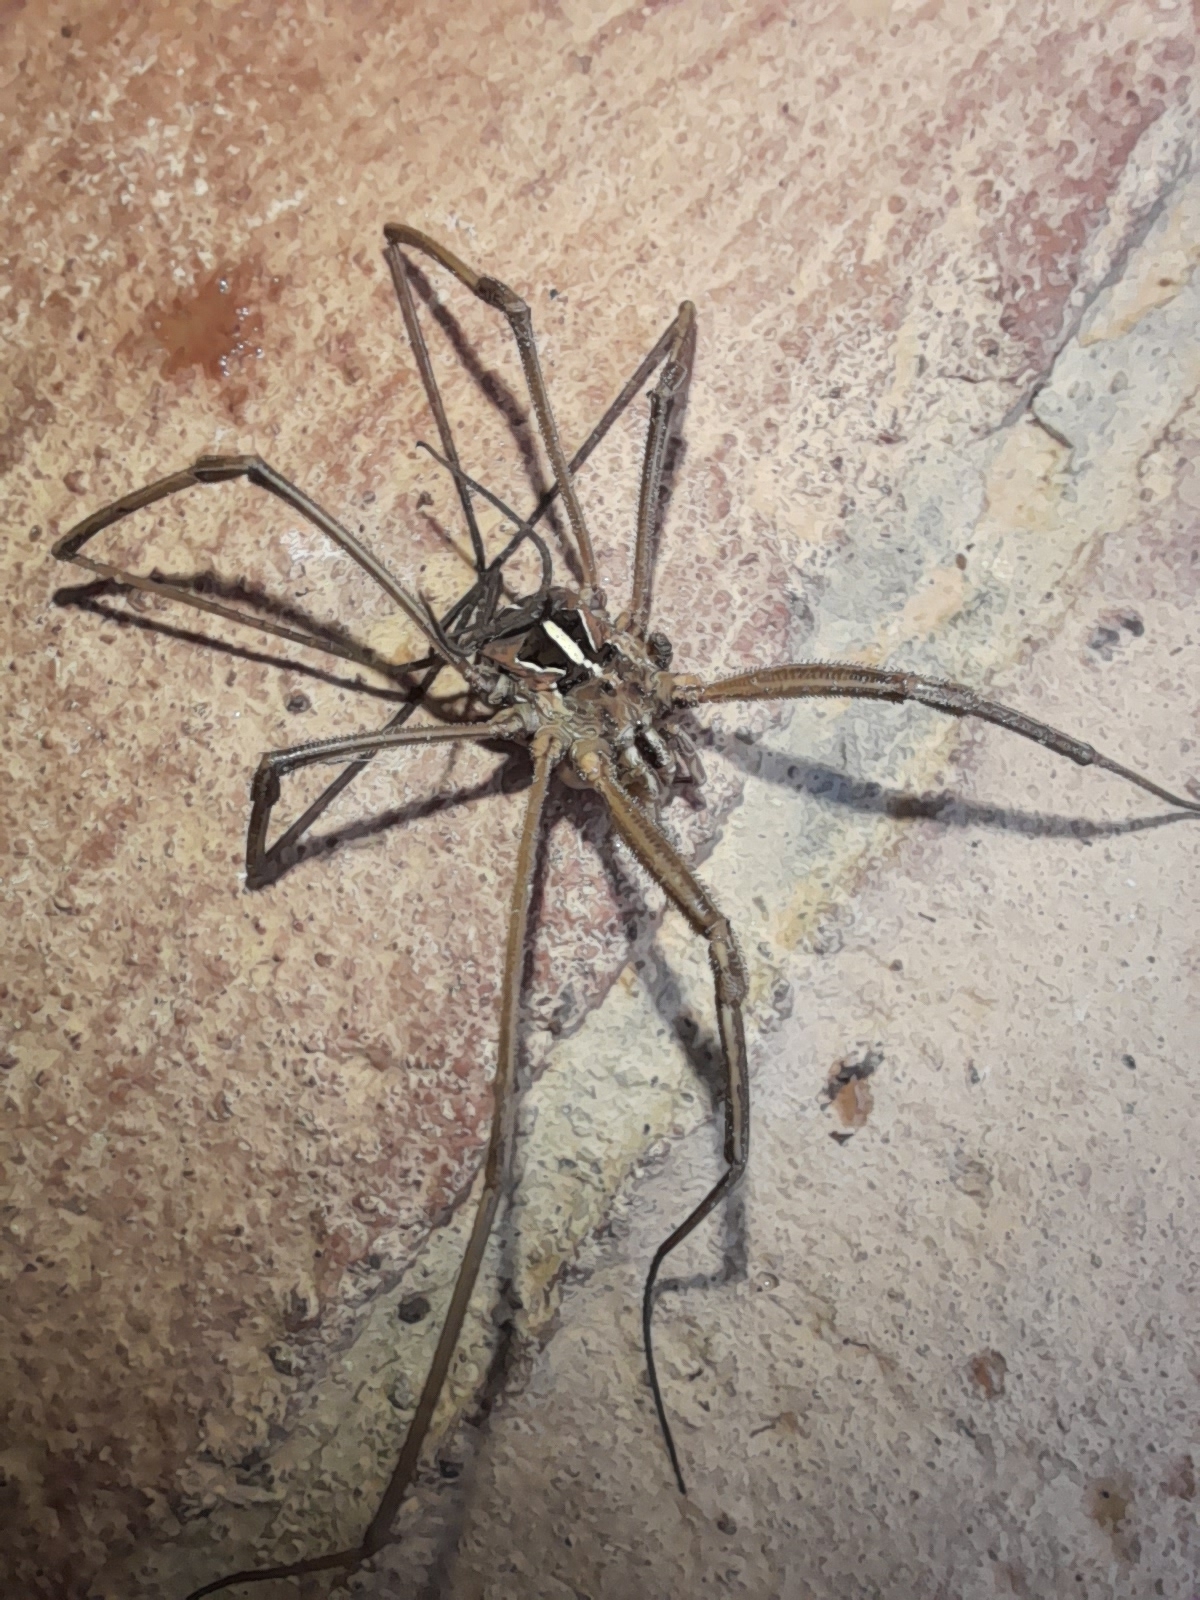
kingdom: Animalia
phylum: Arthropoda
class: Arachnida
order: Opiliones
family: Phalangiidae
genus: Metaphalangium
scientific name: Metaphalangium cirtanum
